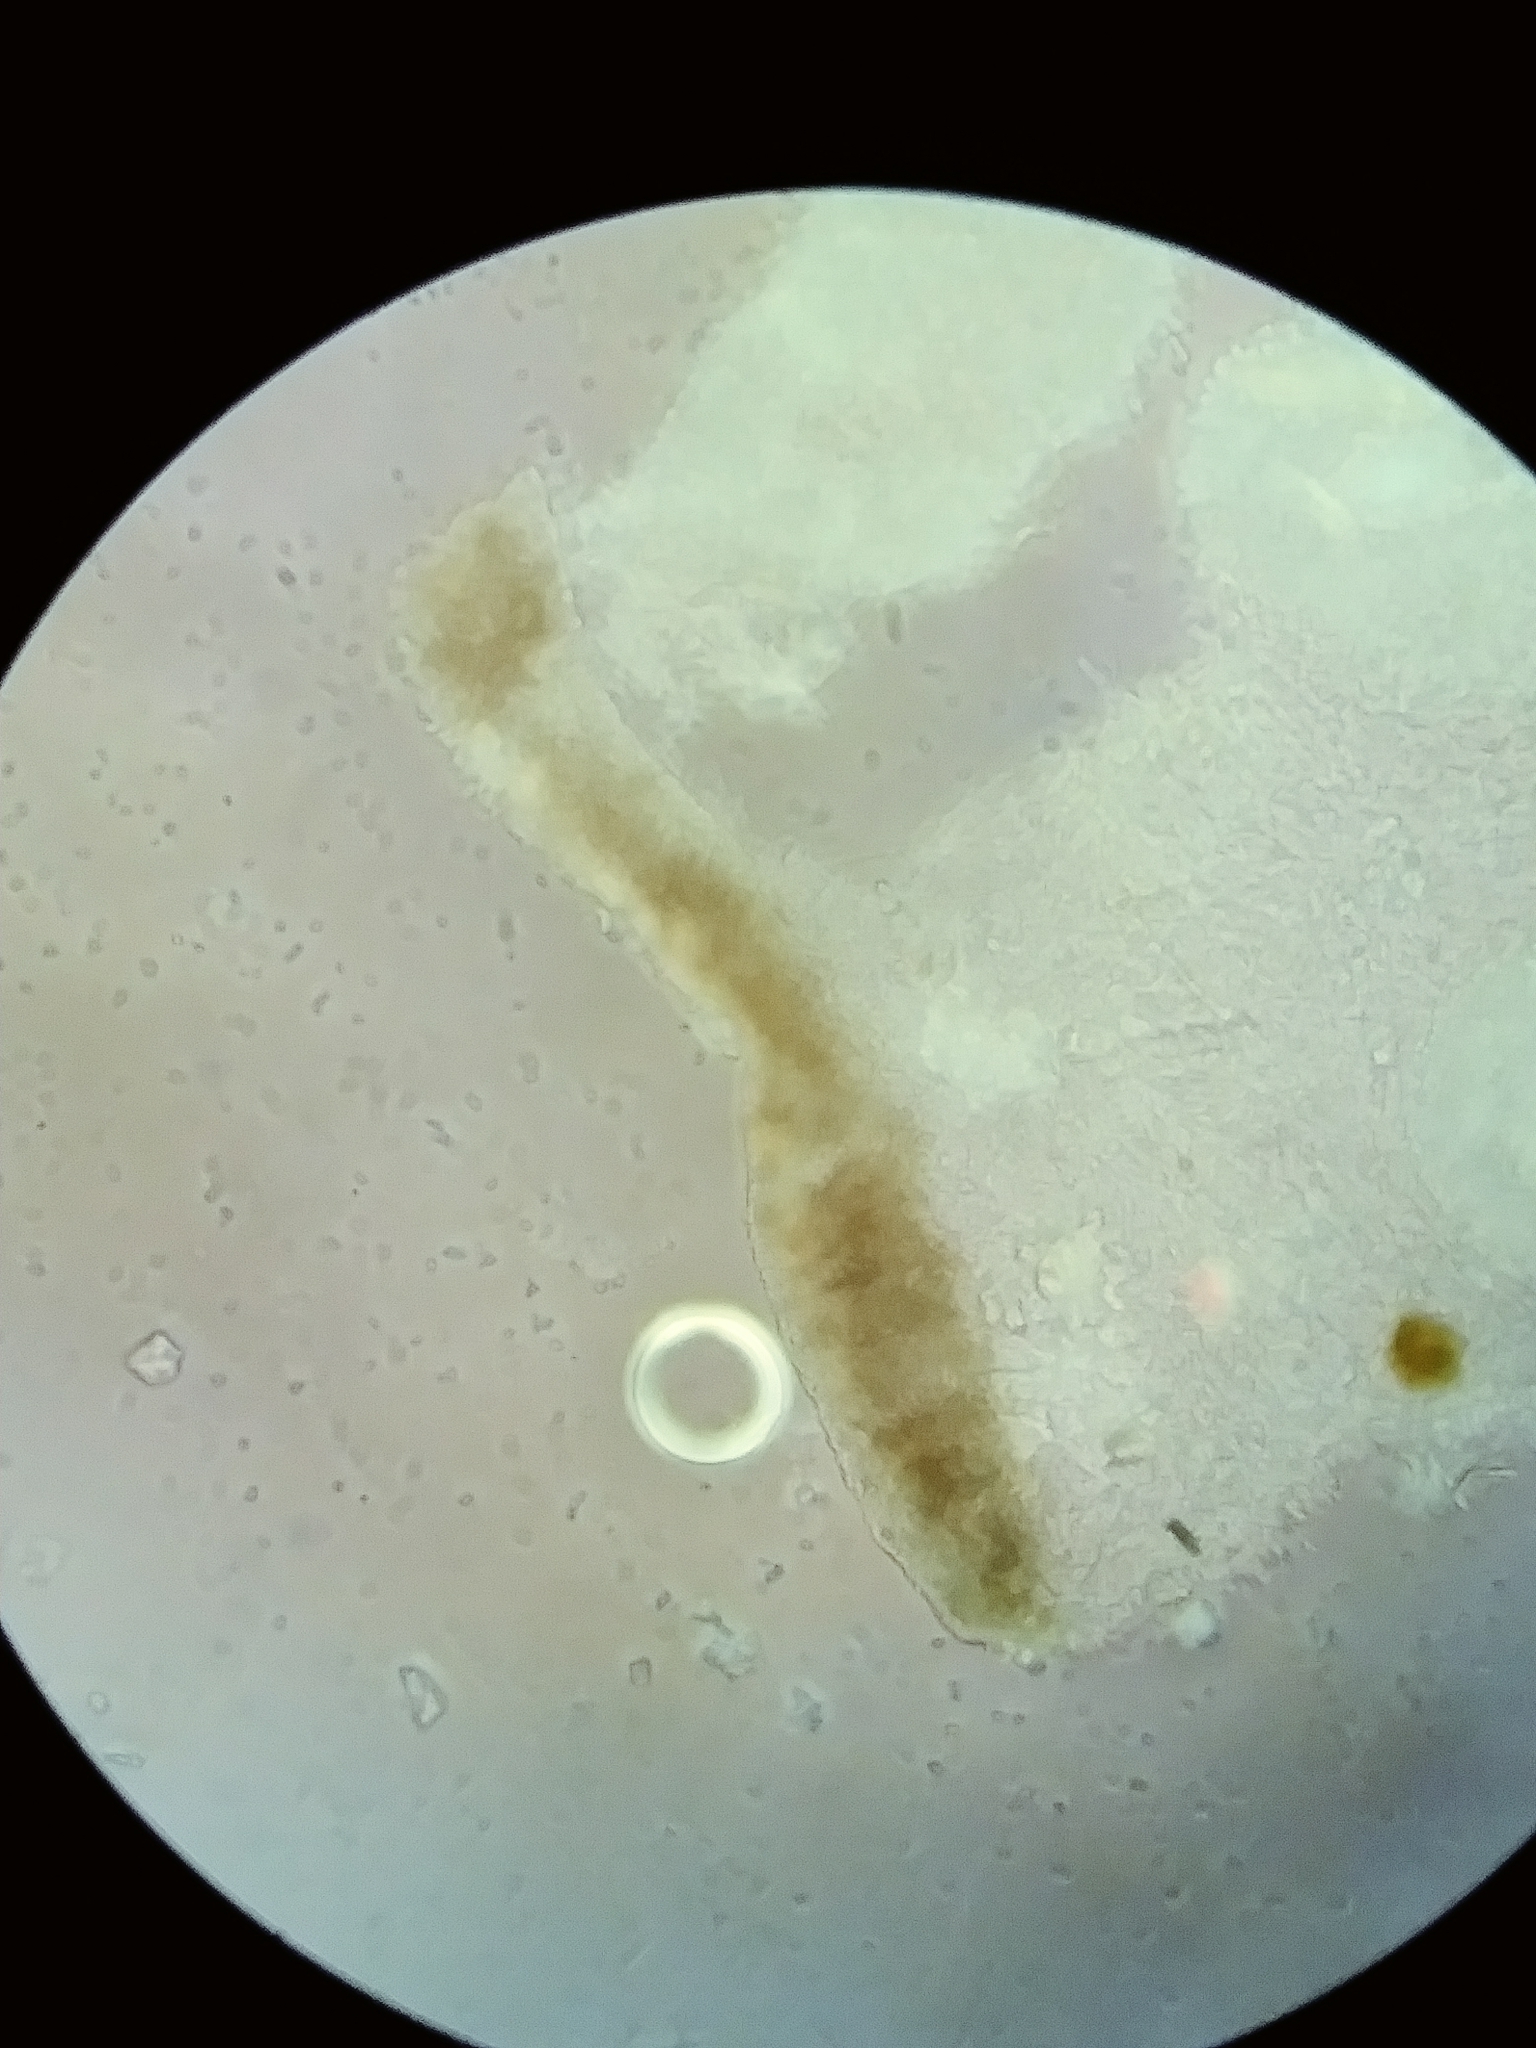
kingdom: Fungi
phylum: Basidiomycota
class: Agaricomycetes
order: Agaricales
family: Mycenaceae
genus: Mycena
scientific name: Mycena sanguinolenta
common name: Bleeding bonnet
